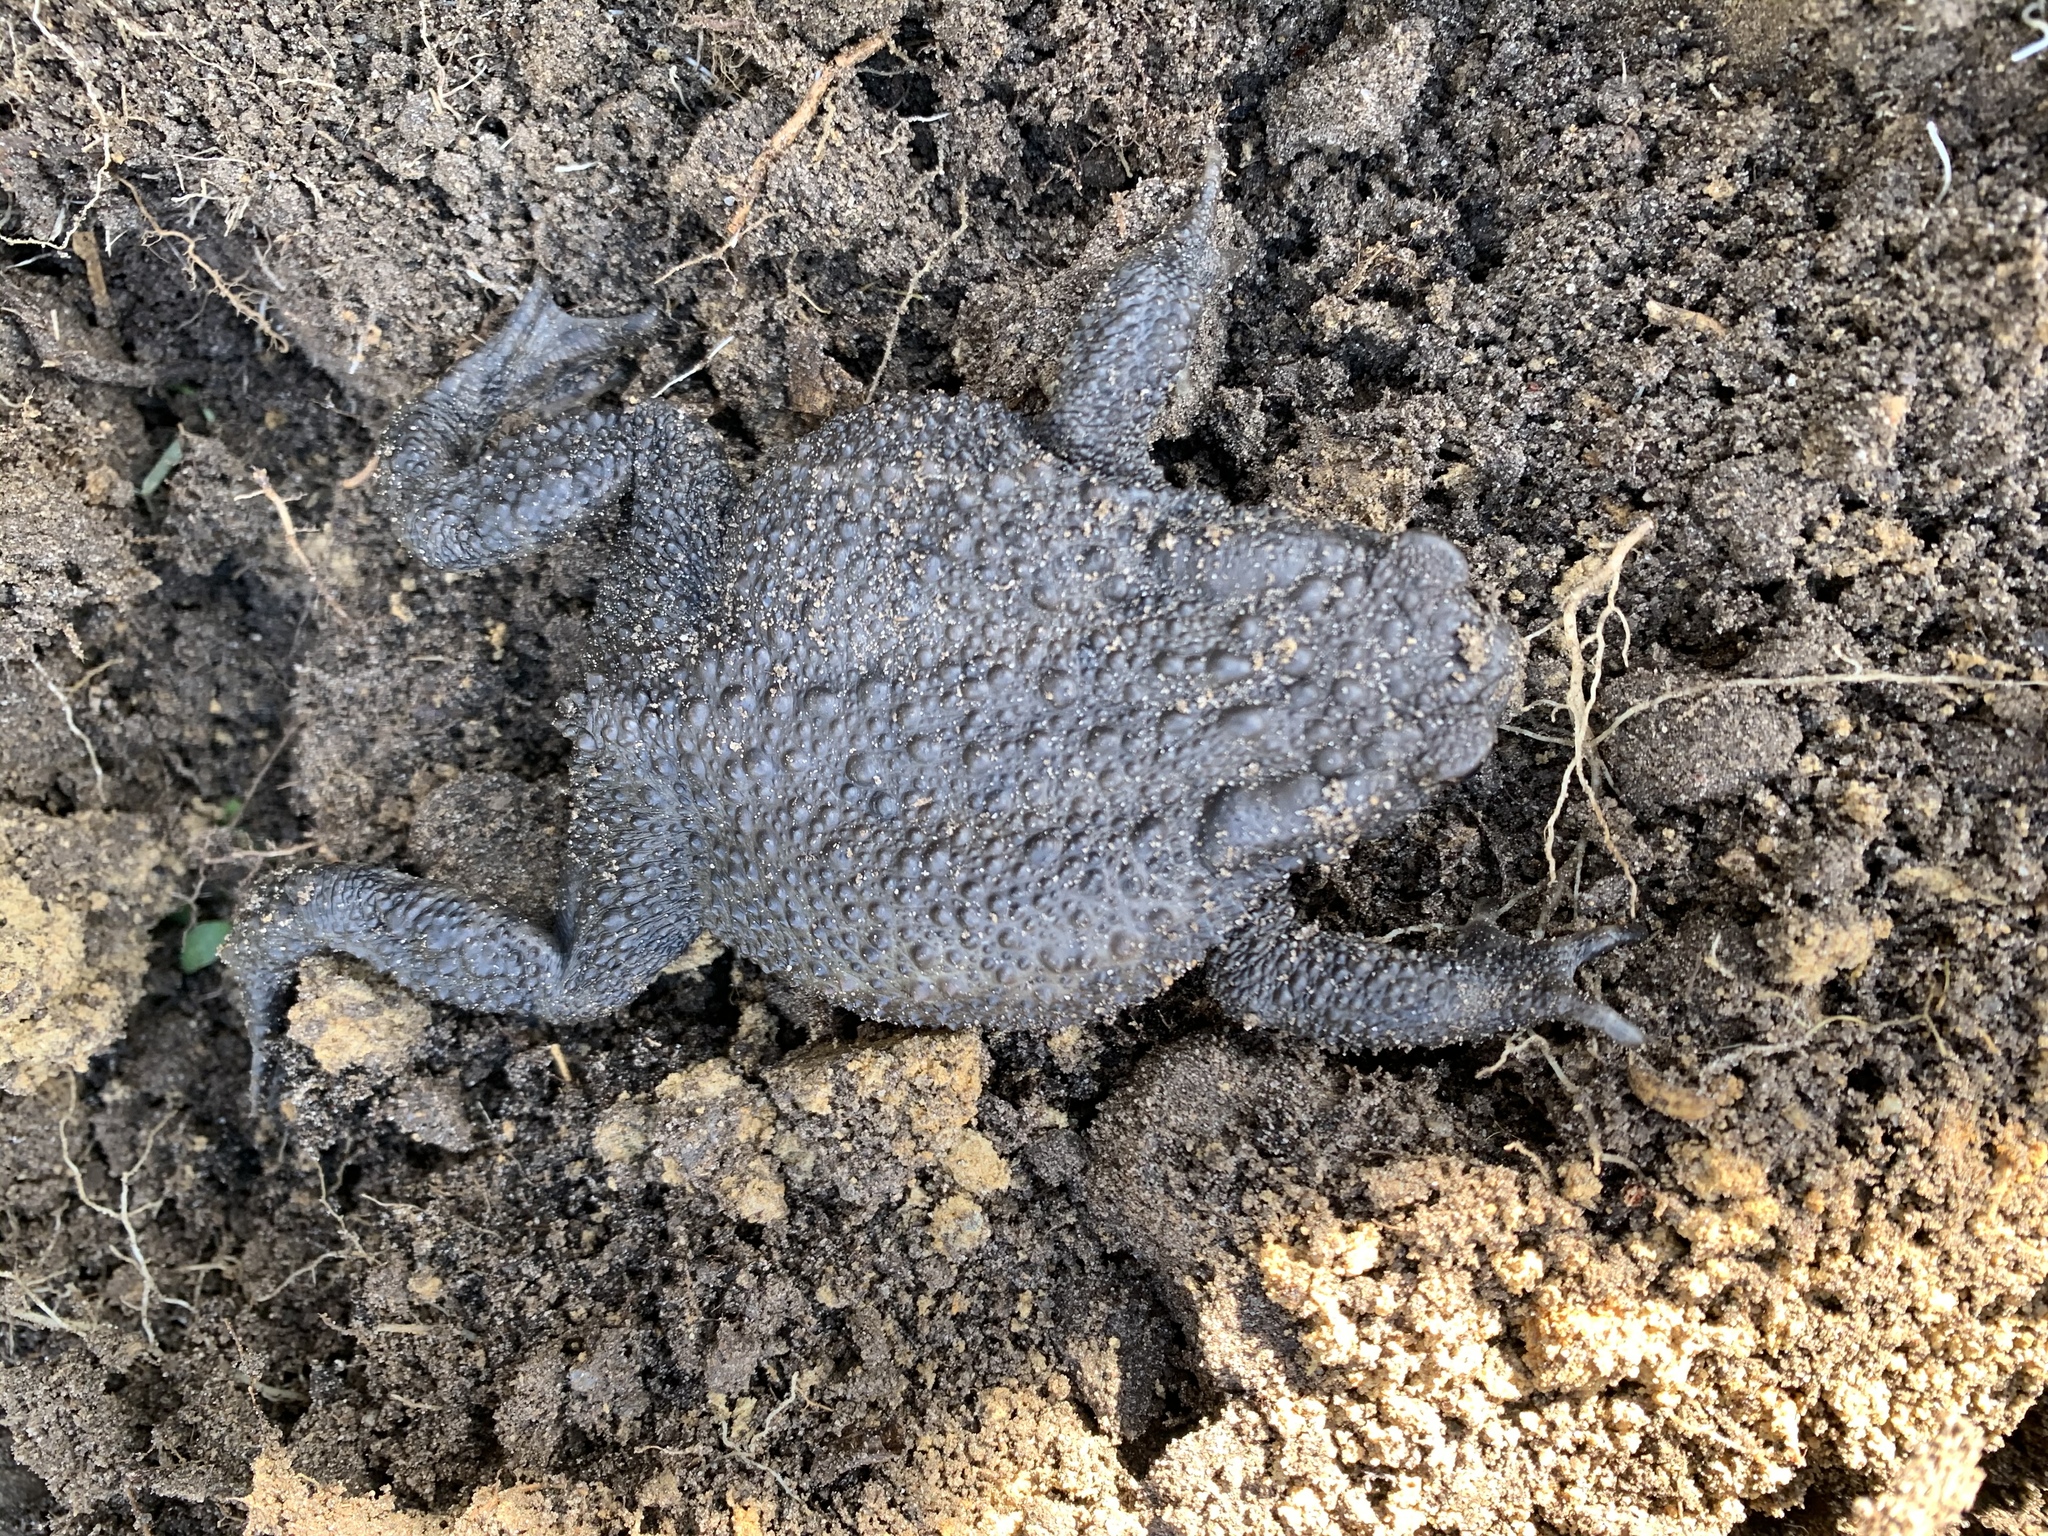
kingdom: Animalia
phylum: Chordata
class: Amphibia
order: Anura
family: Bufonidae
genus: Bufo
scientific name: Bufo bufo
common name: Common toad
